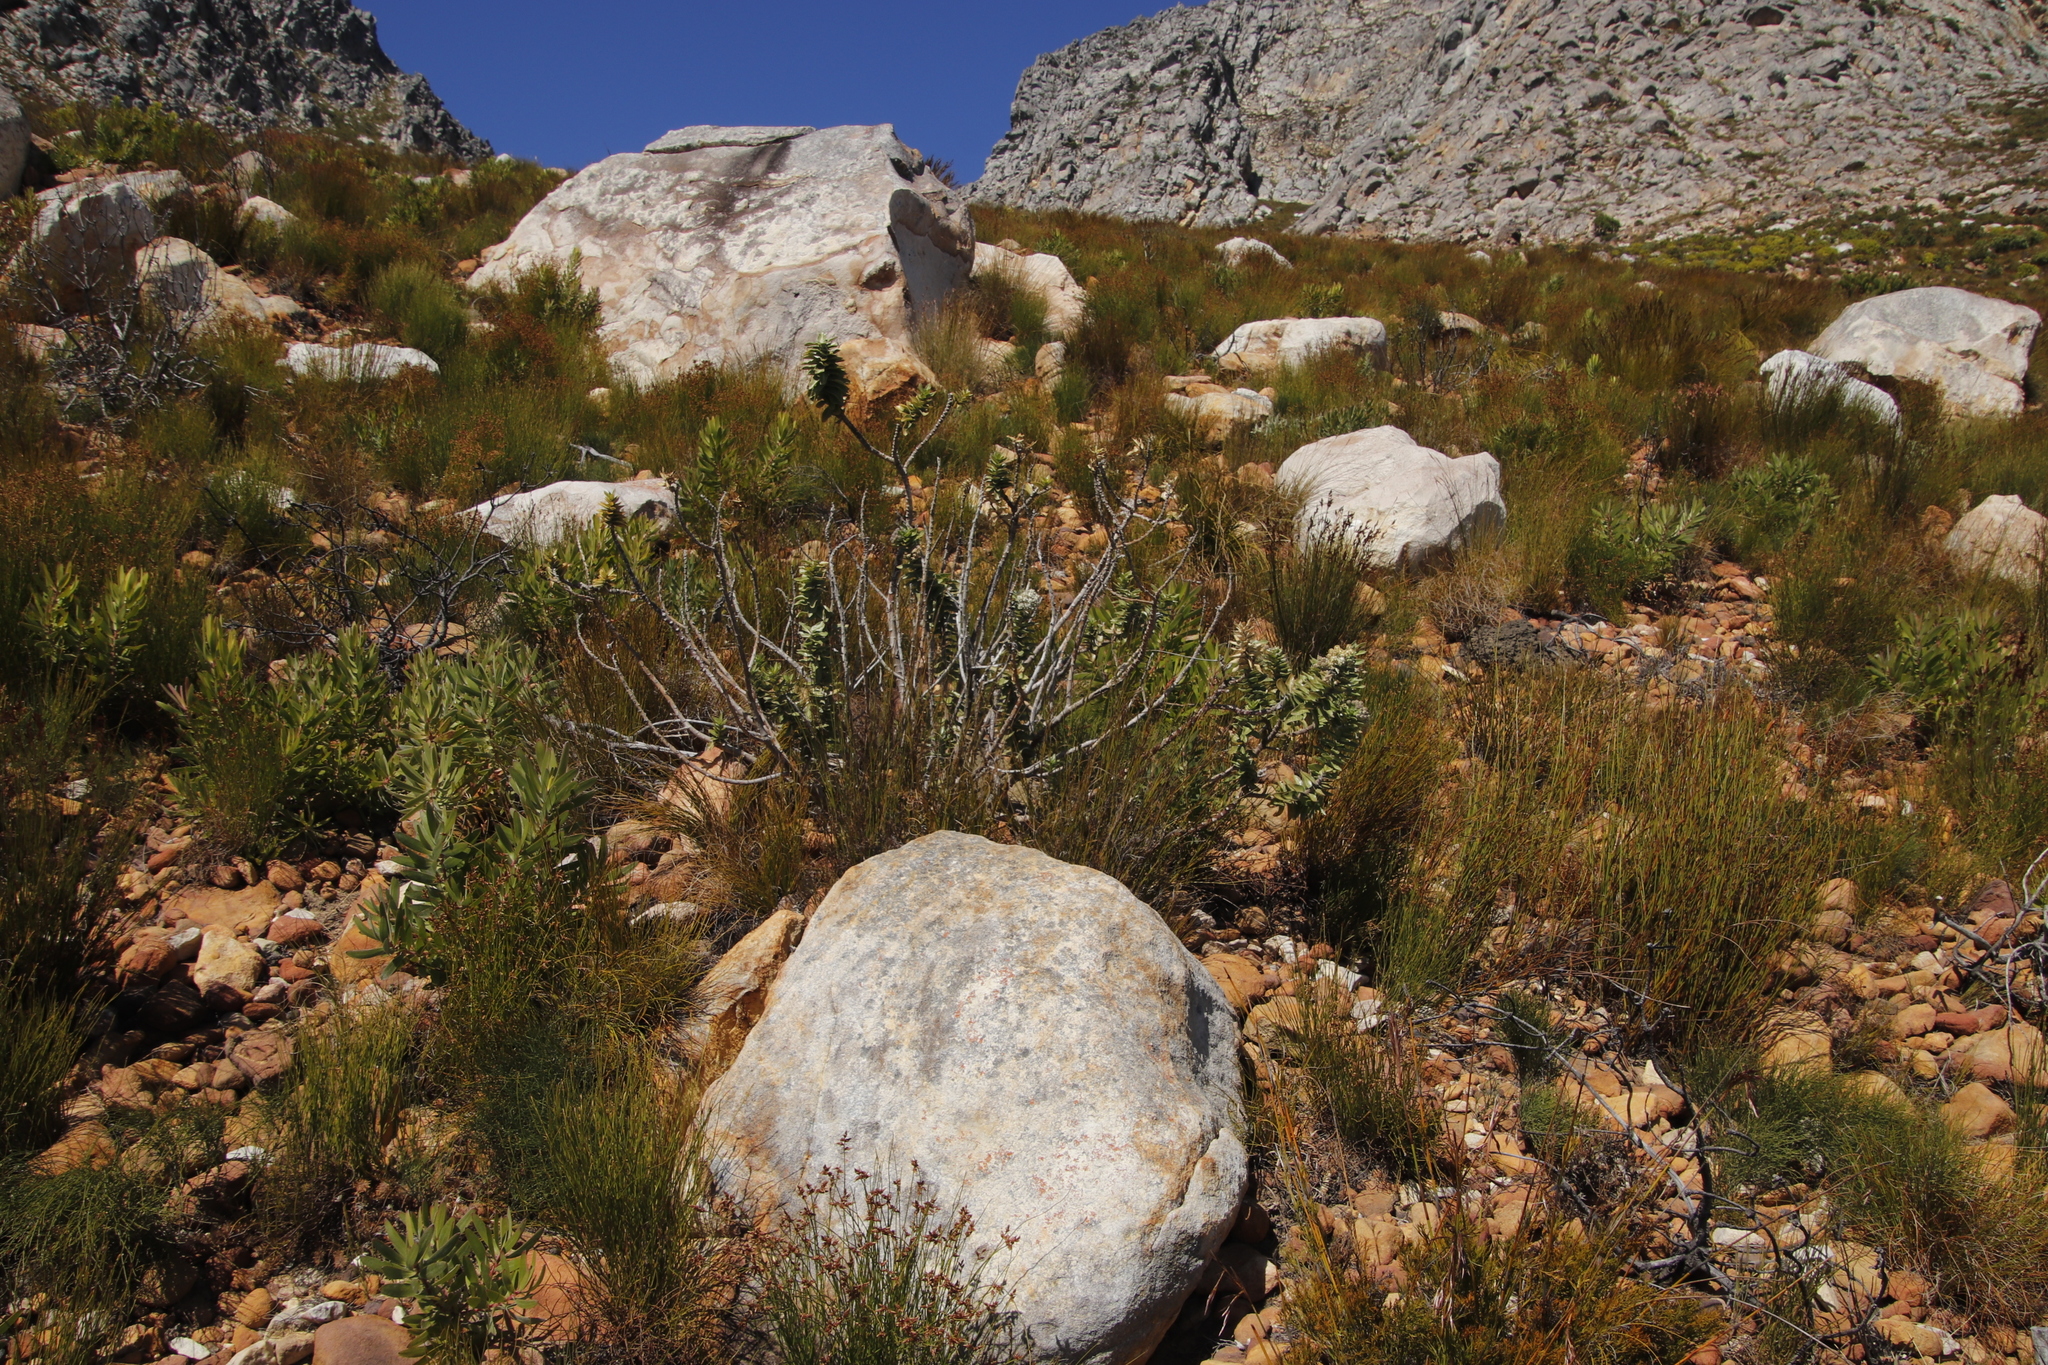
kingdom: Plantae
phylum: Tracheophyta
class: Magnoliopsida
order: Gentianales
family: Apocynaceae
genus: Gomphocarpus
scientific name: Gomphocarpus cancellatus
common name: Wild cotton
